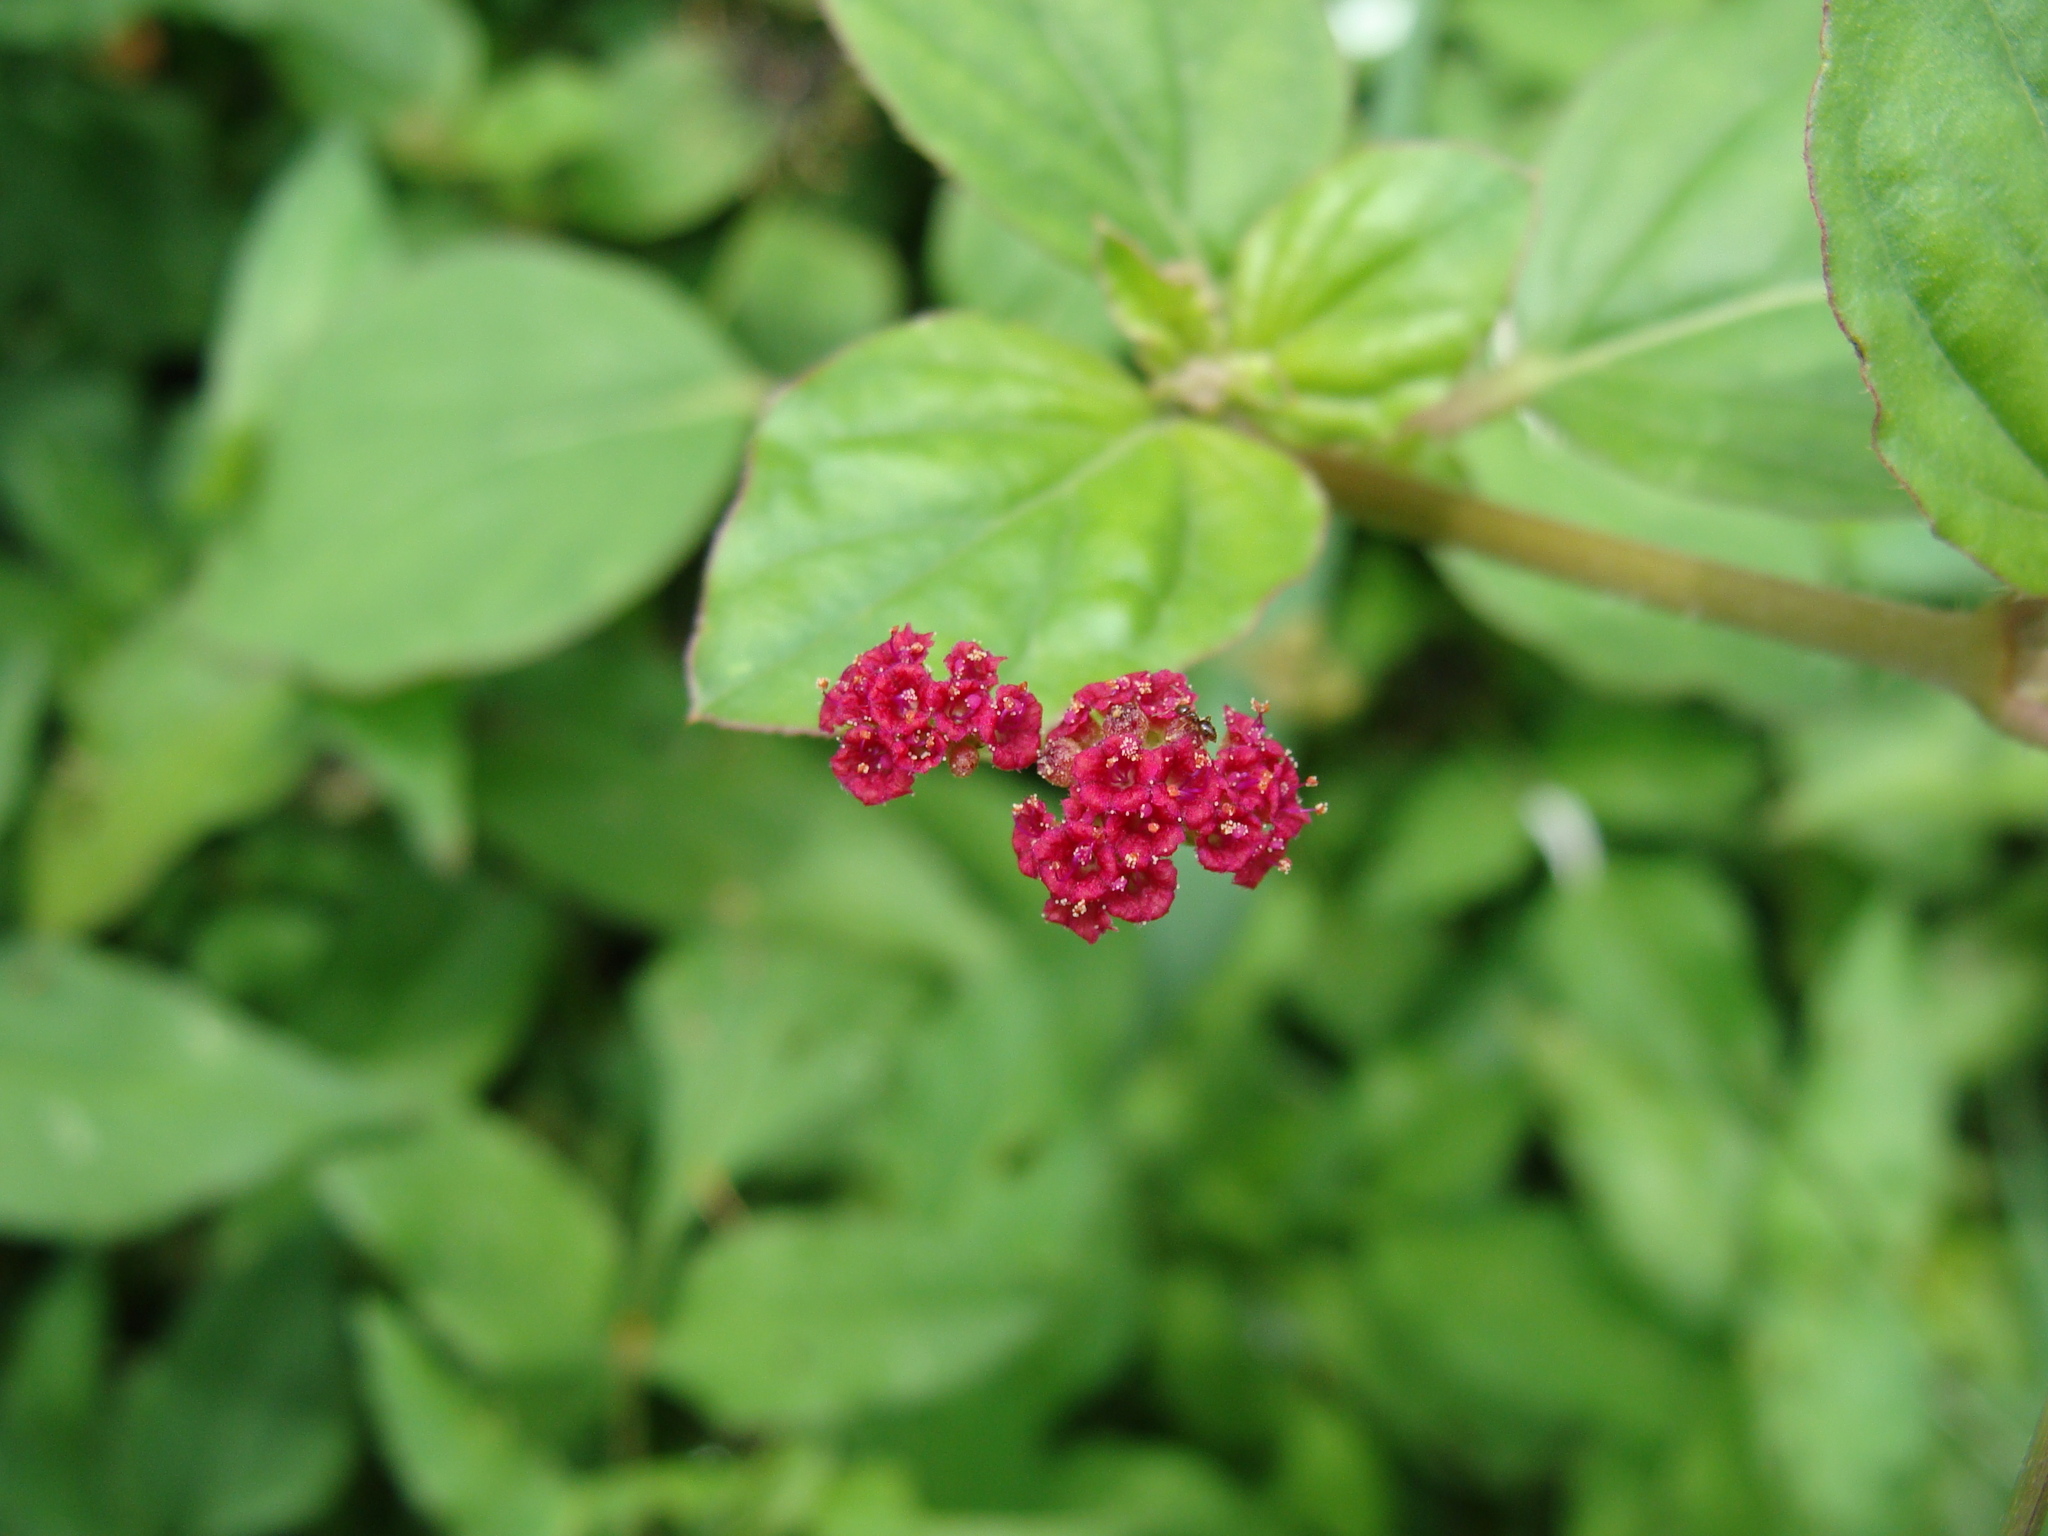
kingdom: Plantae
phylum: Tracheophyta
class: Magnoliopsida
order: Caryophyllales
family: Nyctaginaceae
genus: Boerhavia
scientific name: Boerhavia coccinea
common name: Scarlet spiderling
